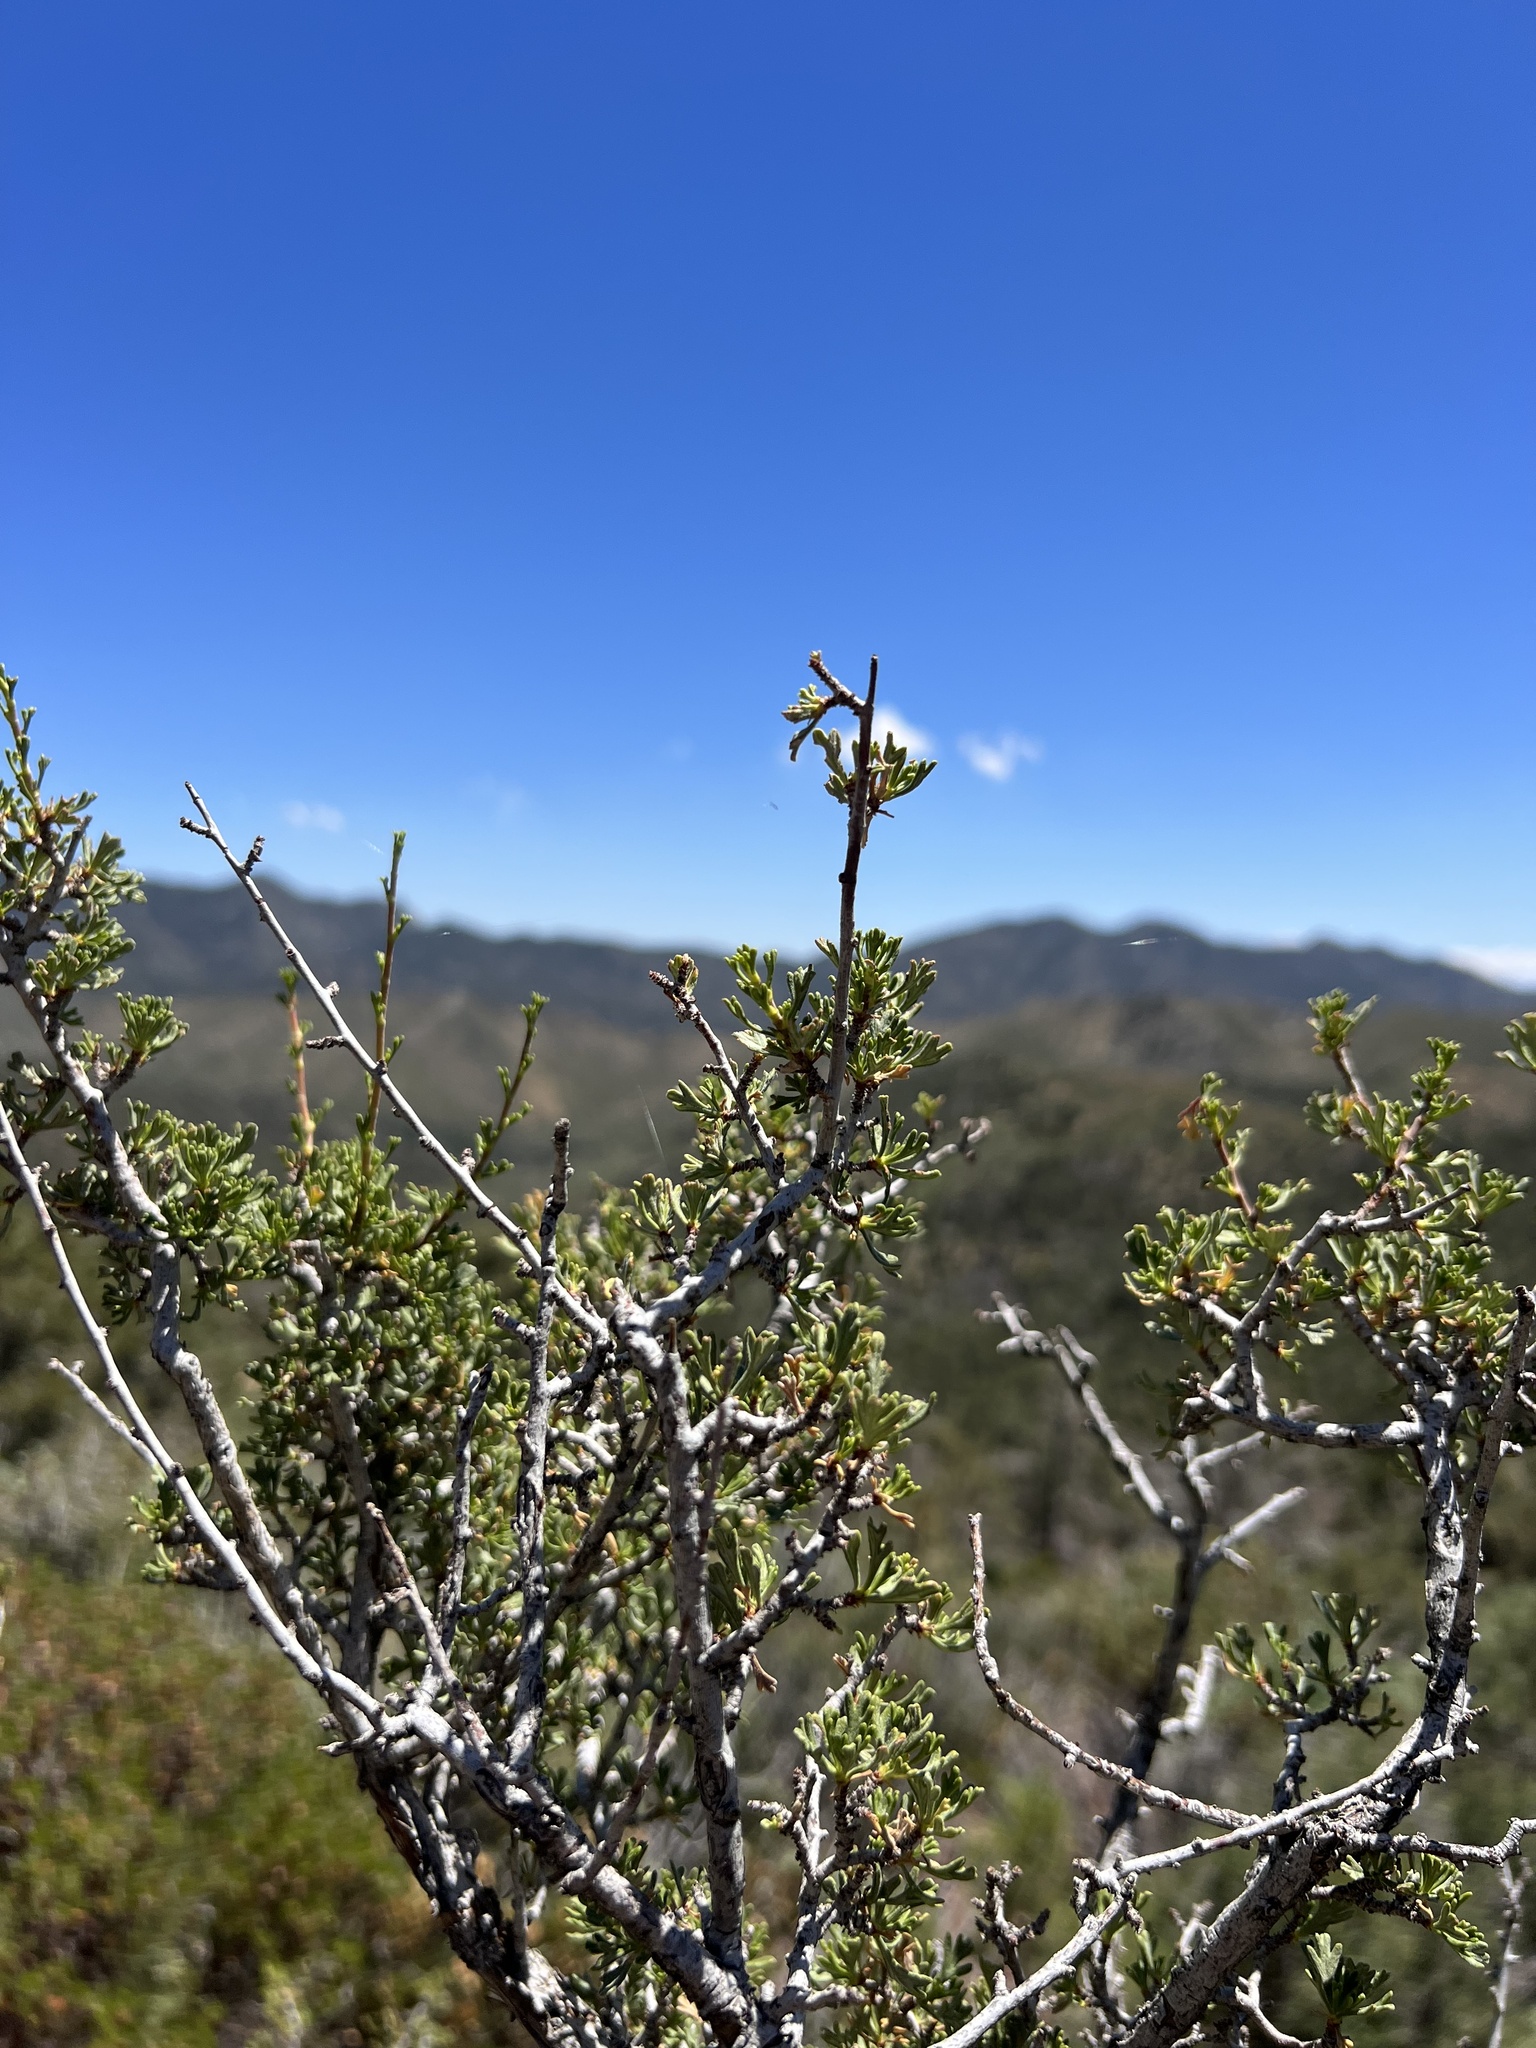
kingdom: Plantae
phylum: Tracheophyta
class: Magnoliopsida
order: Rosales
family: Rosaceae
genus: Purshia
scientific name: Purshia glandulosa
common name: Desert bitterbrush
